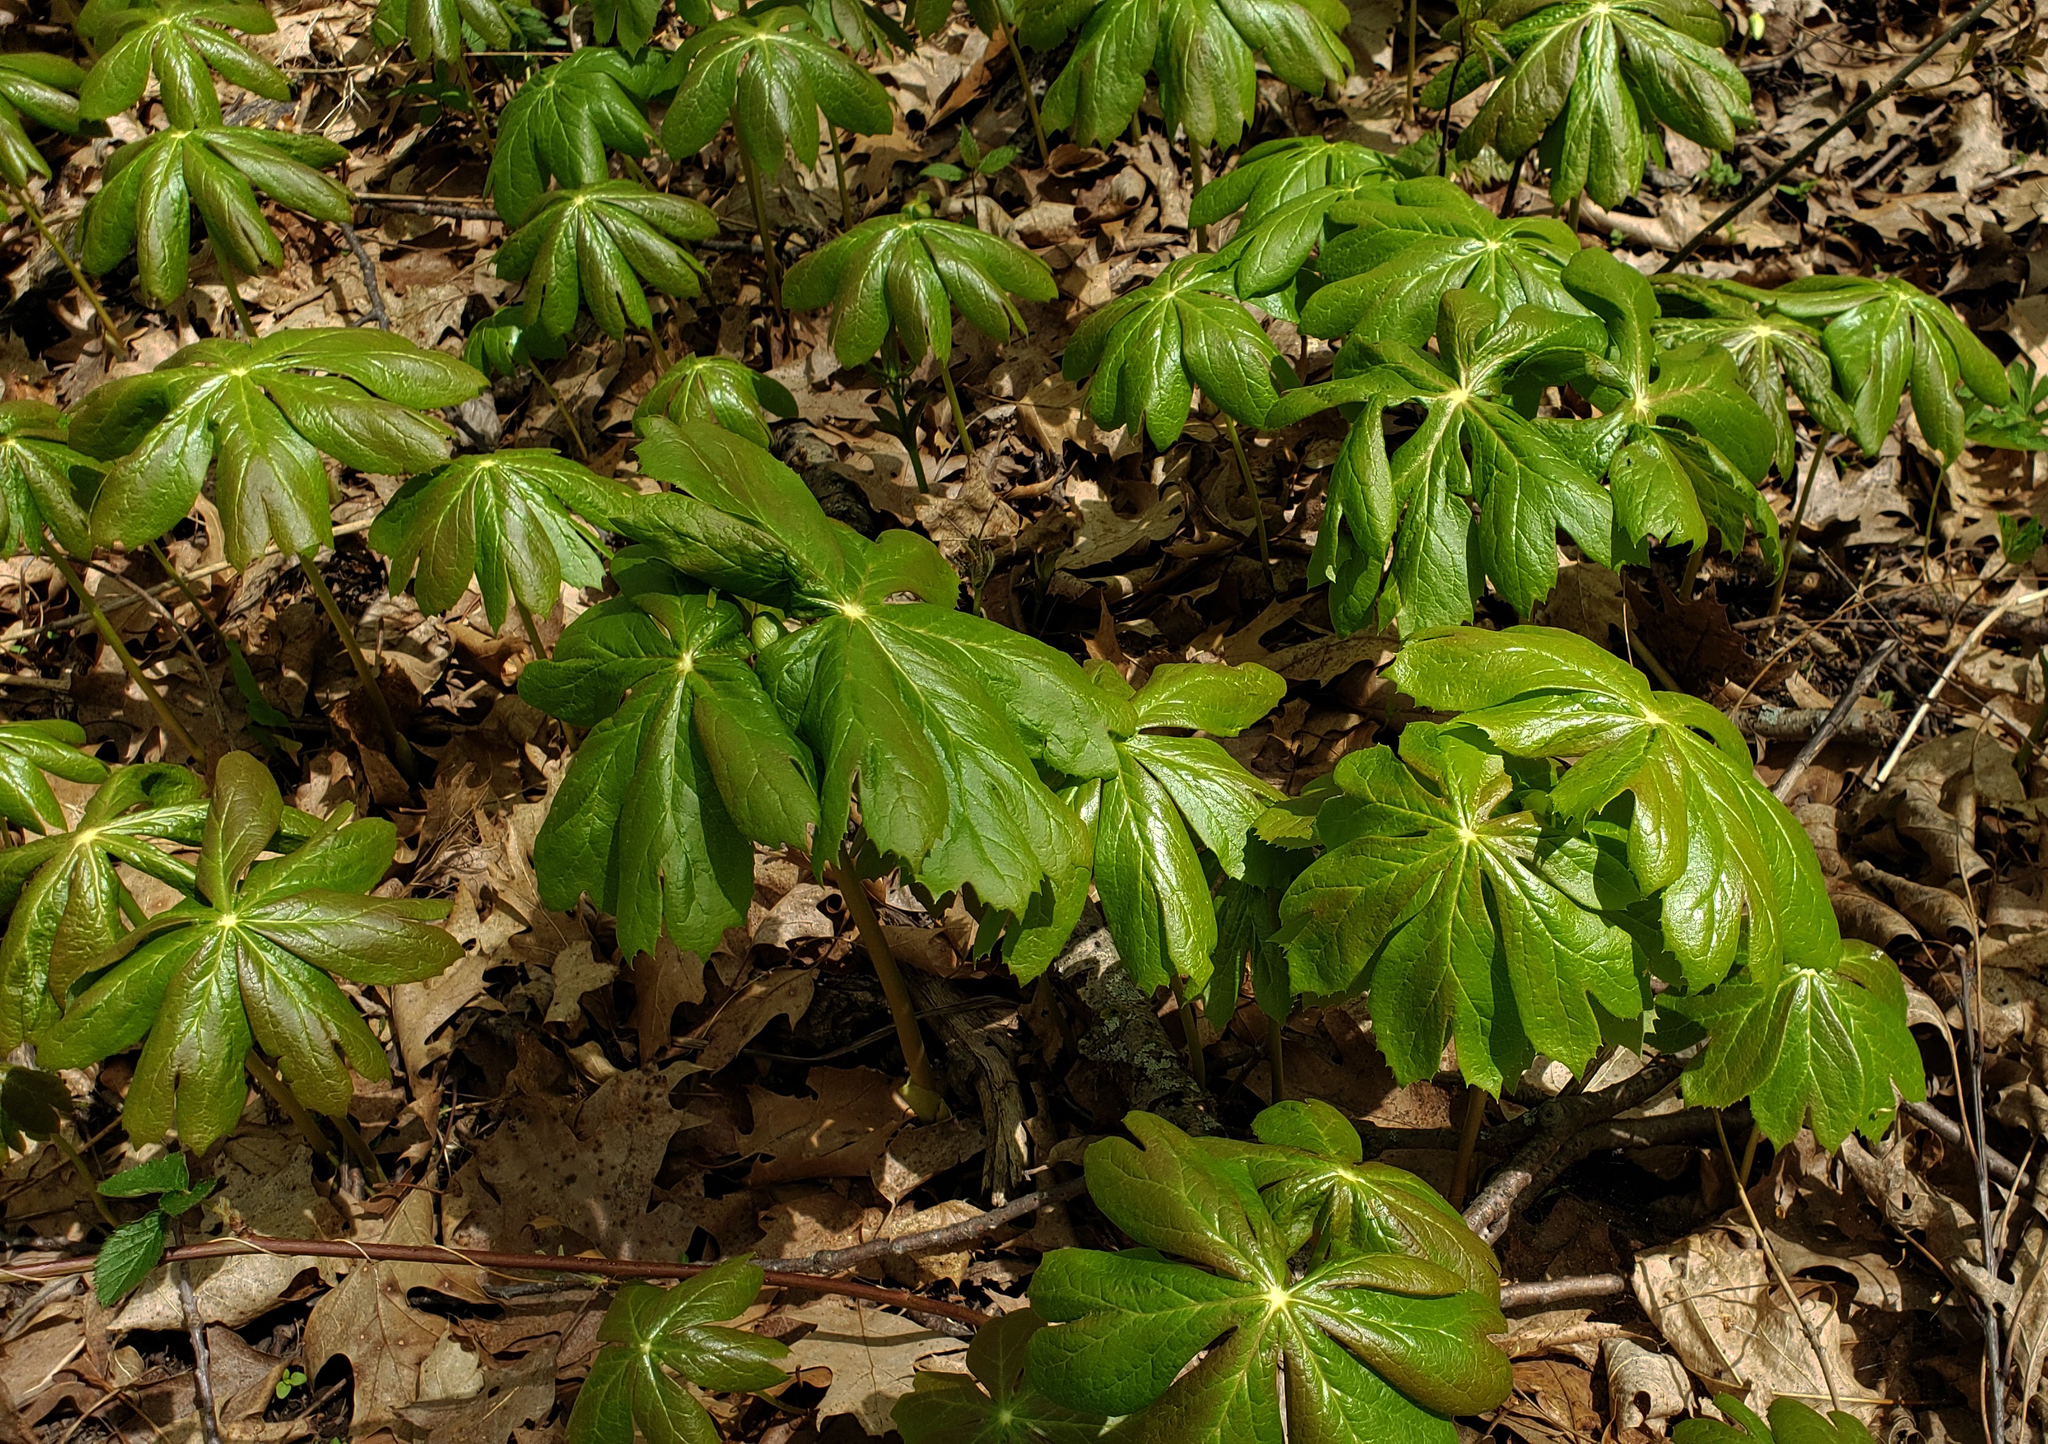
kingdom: Plantae
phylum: Tracheophyta
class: Magnoliopsida
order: Ranunculales
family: Berberidaceae
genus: Podophyllum
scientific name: Podophyllum peltatum
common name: Wild mandrake
